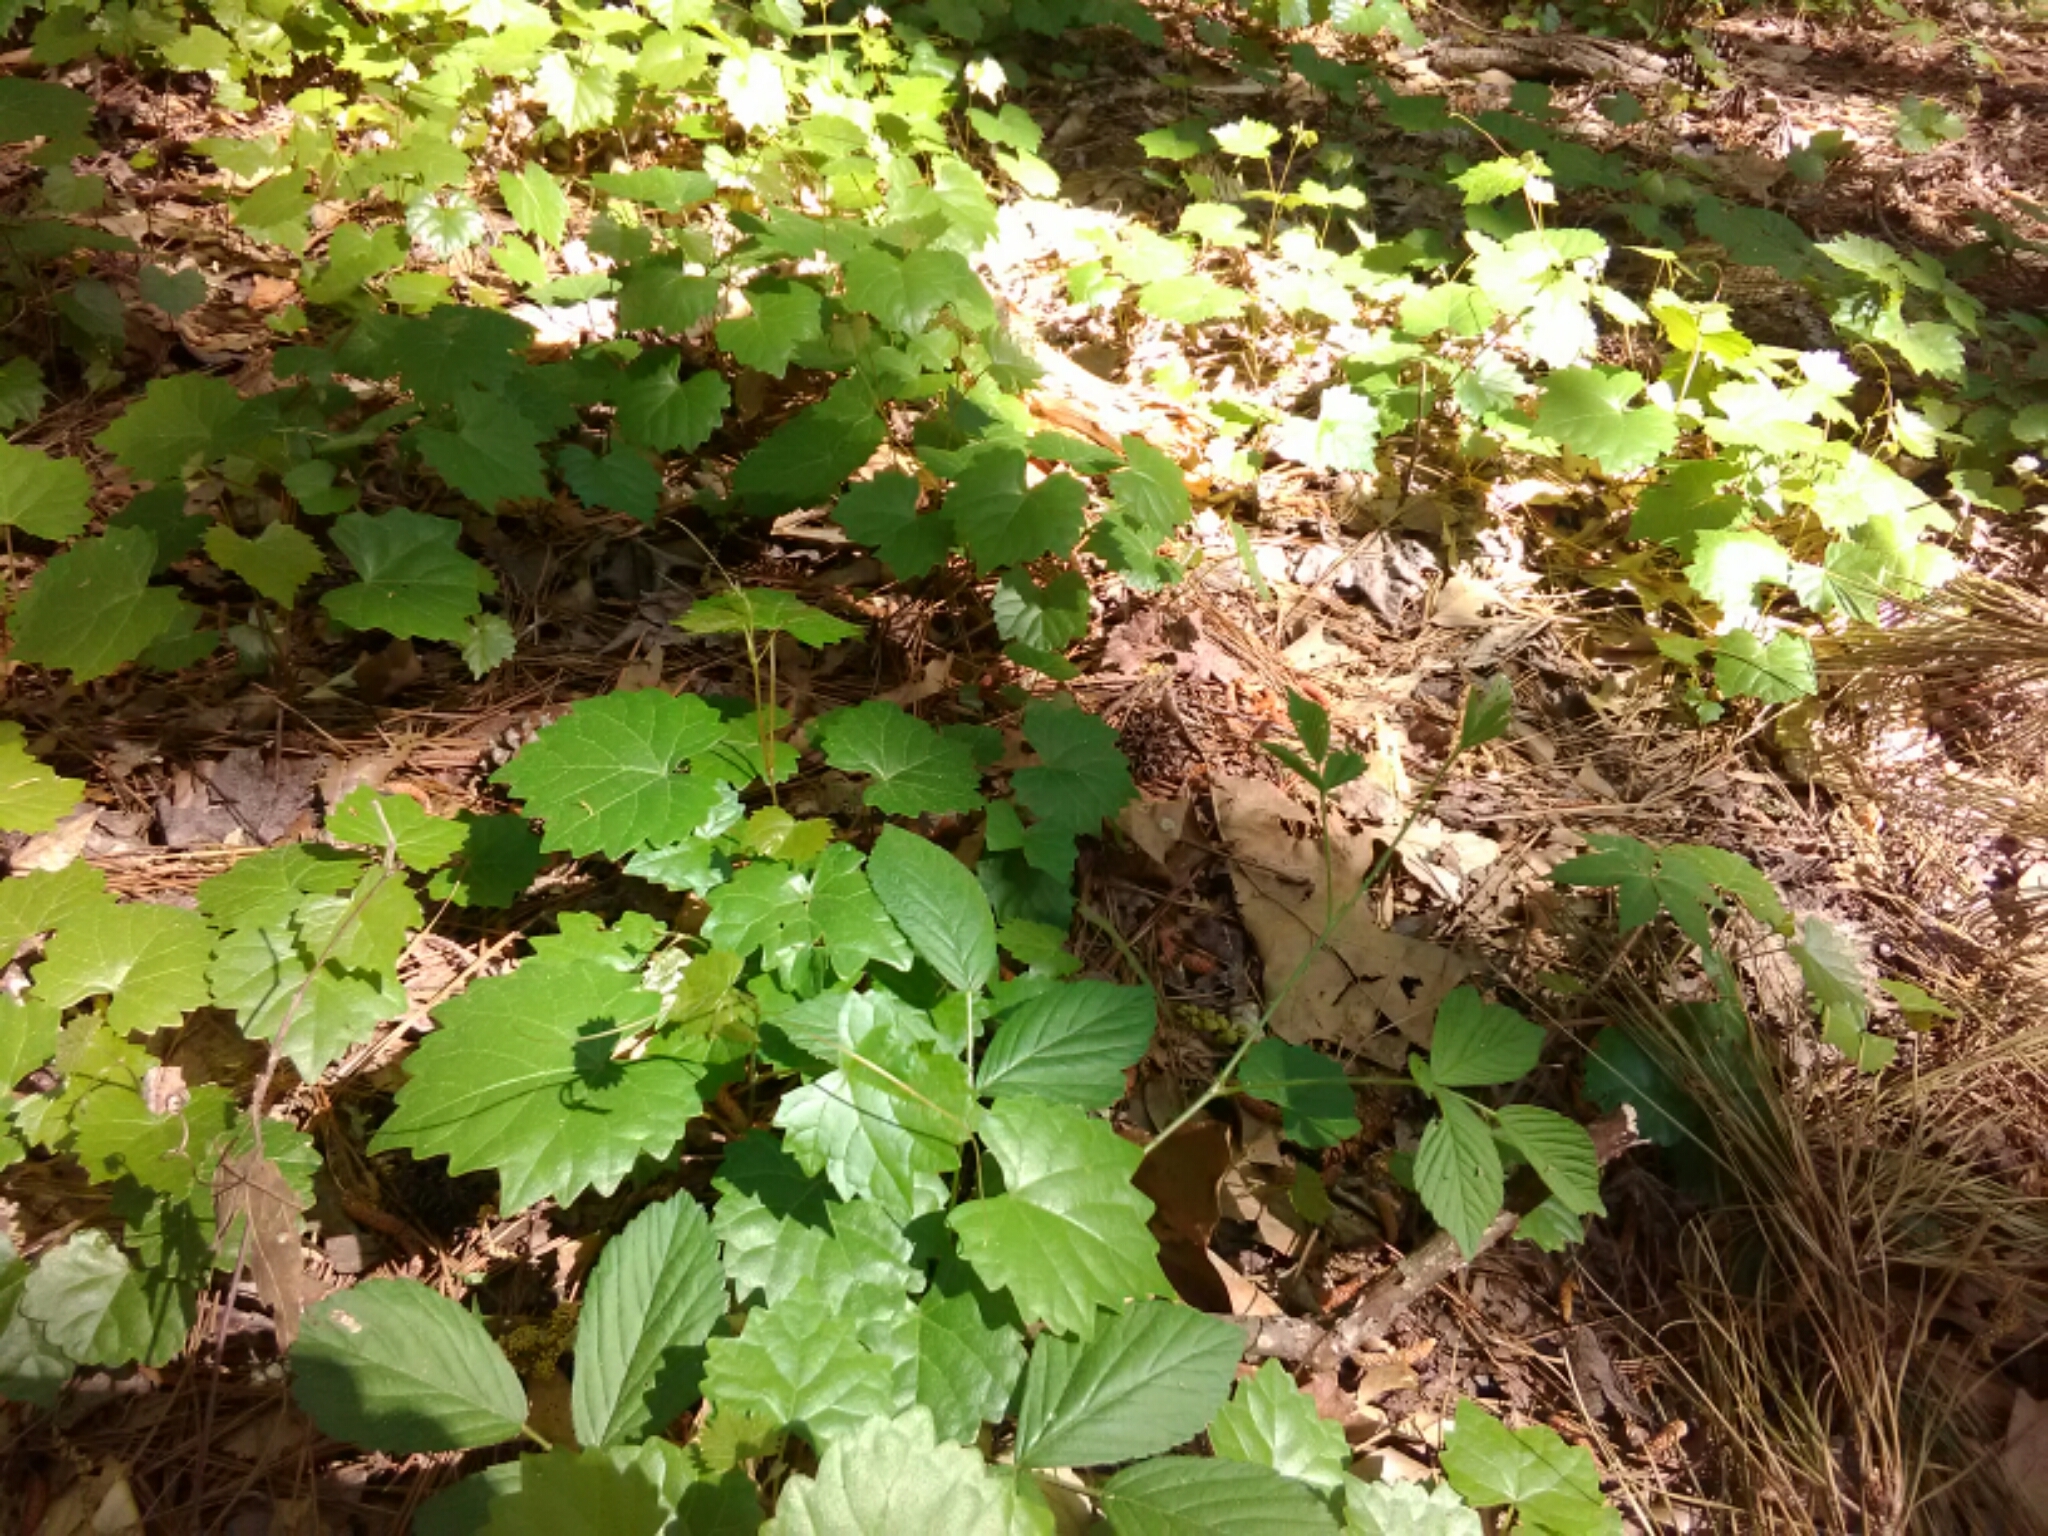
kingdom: Plantae
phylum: Tracheophyta
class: Magnoliopsida
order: Vitales
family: Vitaceae
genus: Vitis
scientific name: Vitis rotundifolia
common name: Muscadine grape
